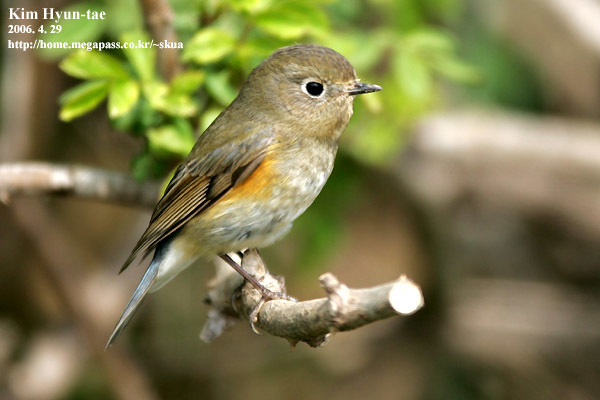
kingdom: Animalia
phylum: Chordata
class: Aves
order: Passeriformes
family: Muscicapidae
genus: Tarsiger
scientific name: Tarsiger cyanurus
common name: Red-flanked bluetail
